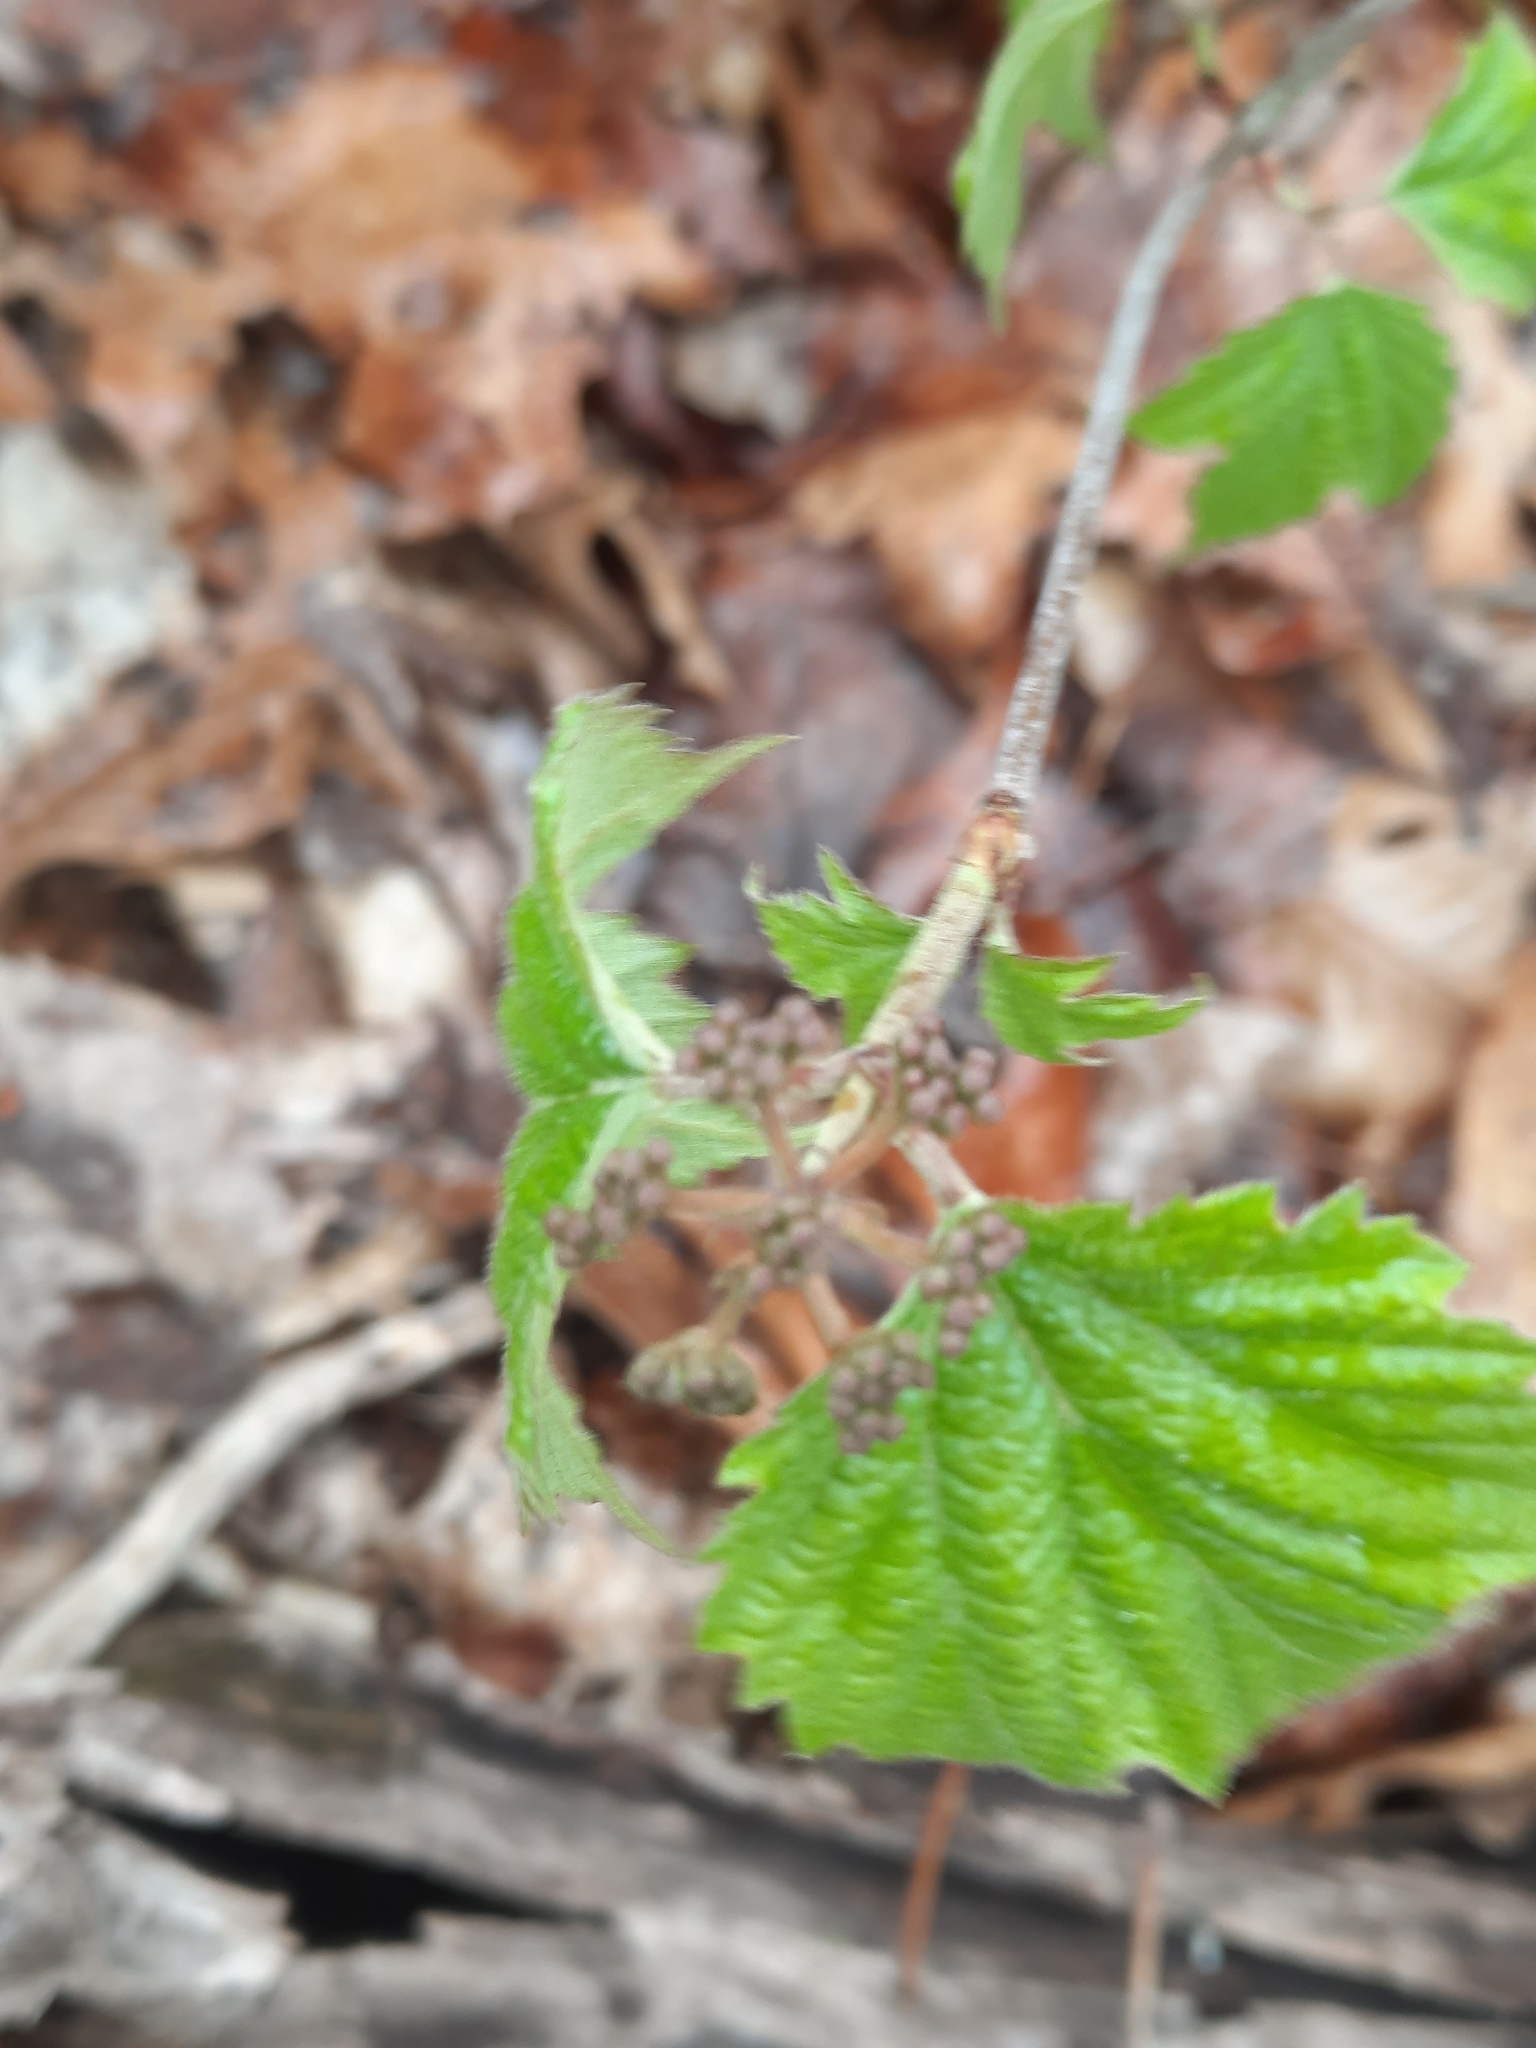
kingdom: Plantae
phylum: Tracheophyta
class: Magnoliopsida
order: Dipsacales
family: Viburnaceae
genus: Viburnum
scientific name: Viburnum acerifolium
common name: Dockmackie
